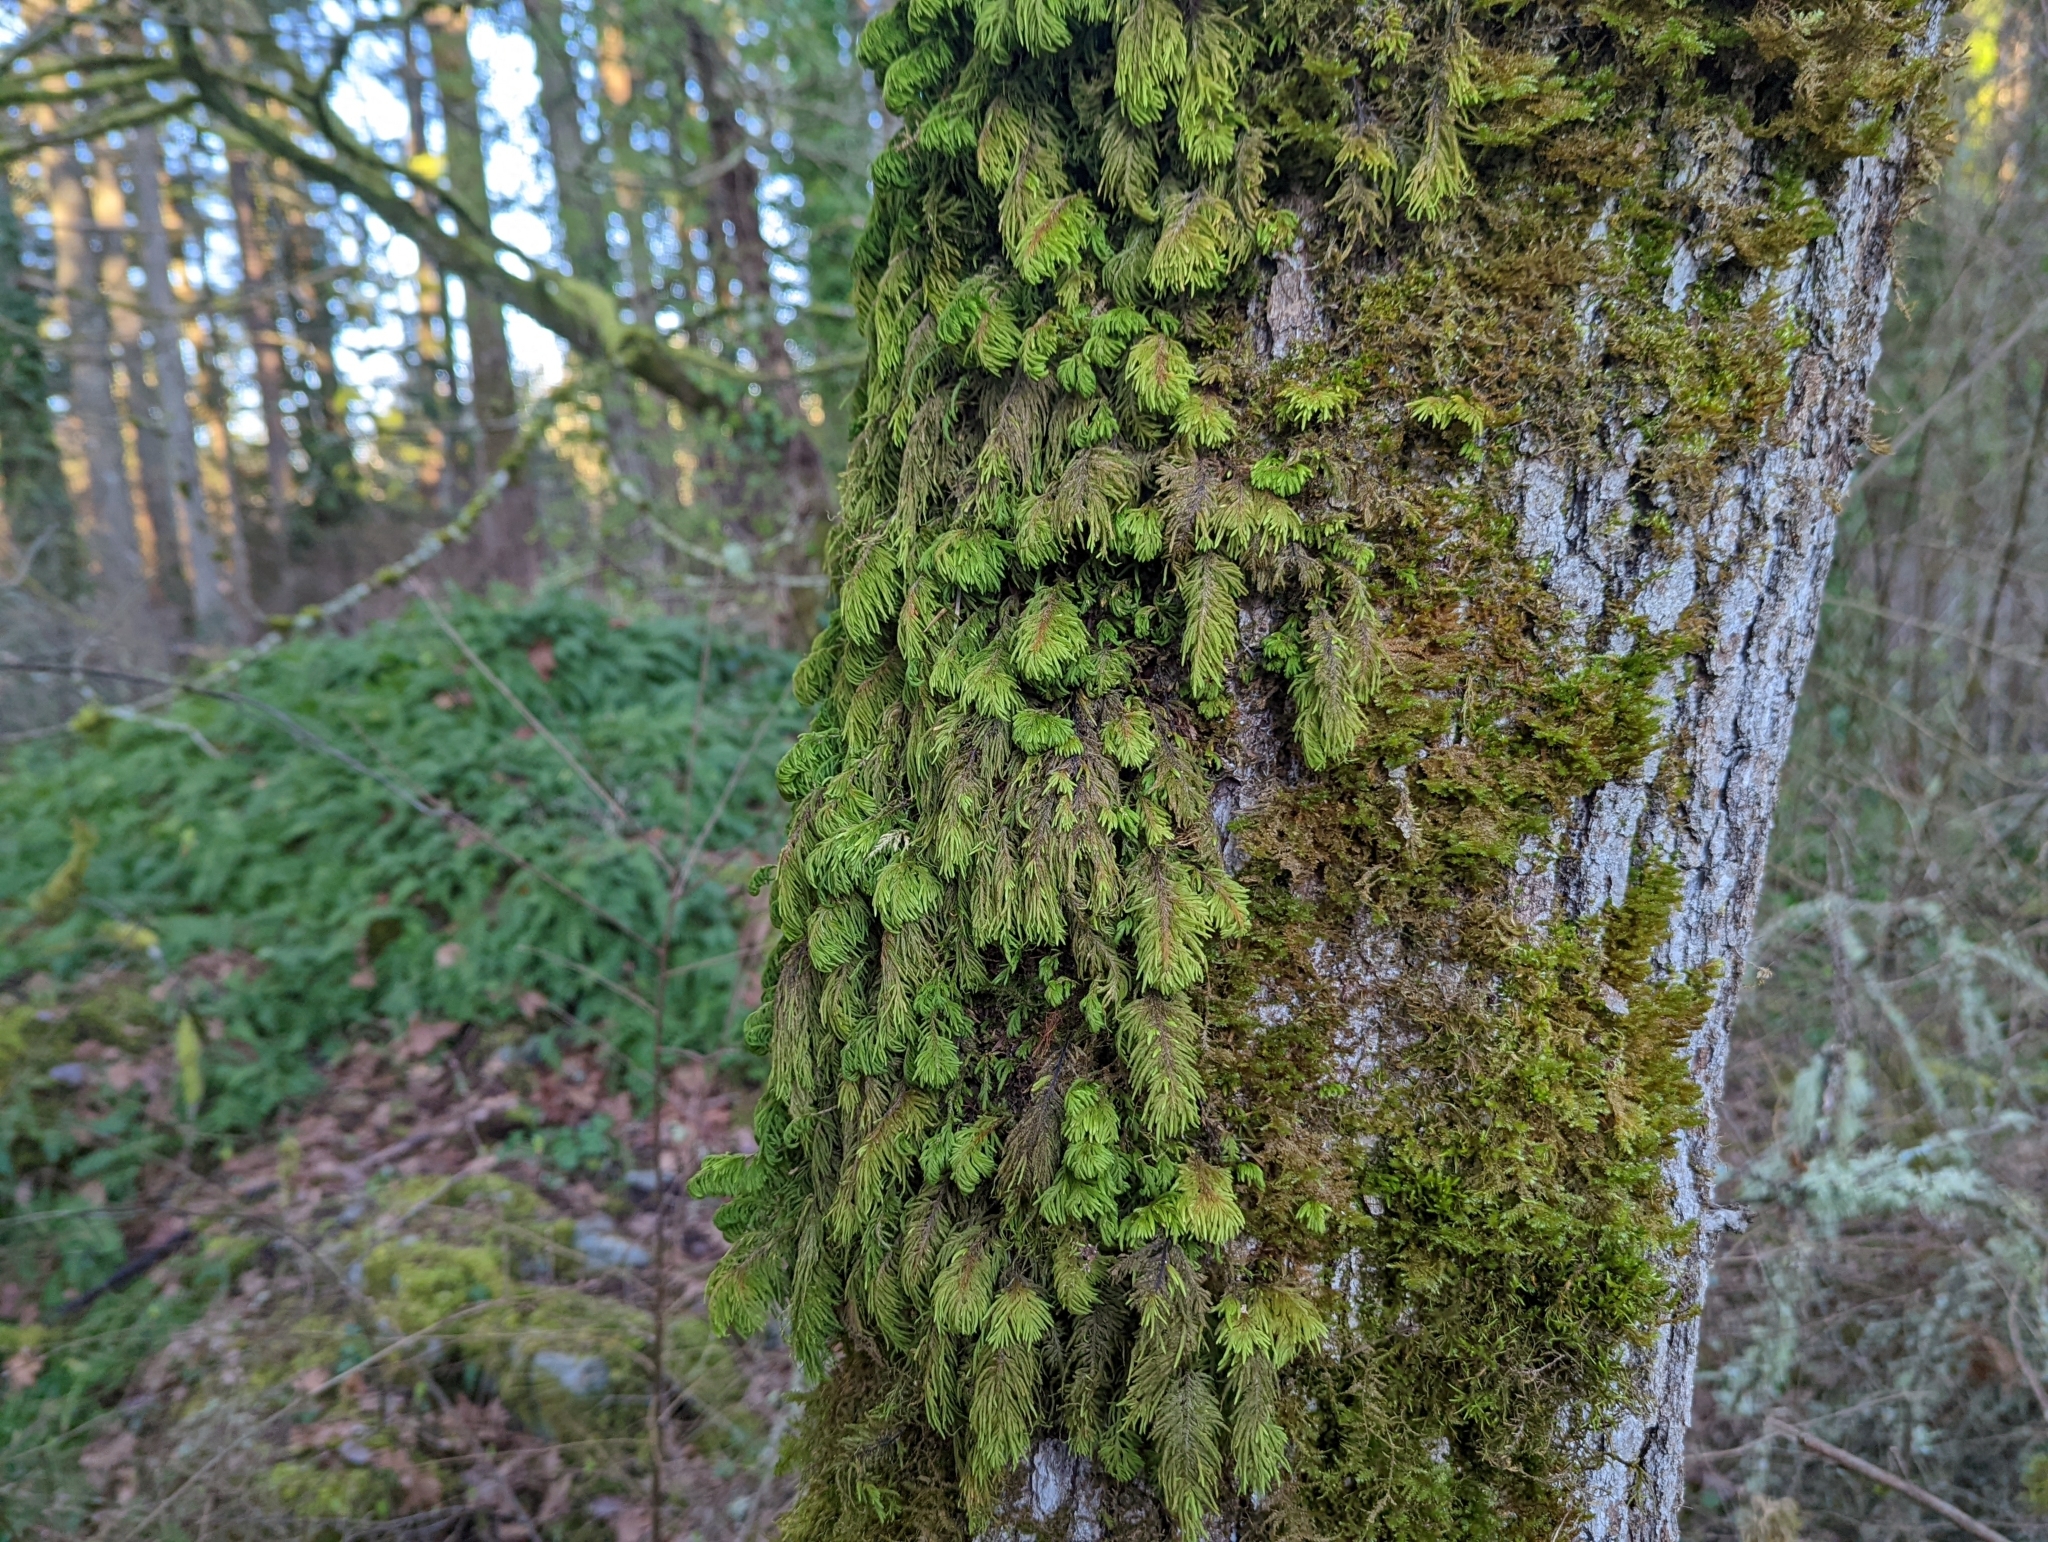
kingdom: Plantae
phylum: Bryophyta
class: Bryopsida
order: Hypnales
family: Cryphaeaceae
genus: Dendroalsia
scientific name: Dendroalsia abietina
